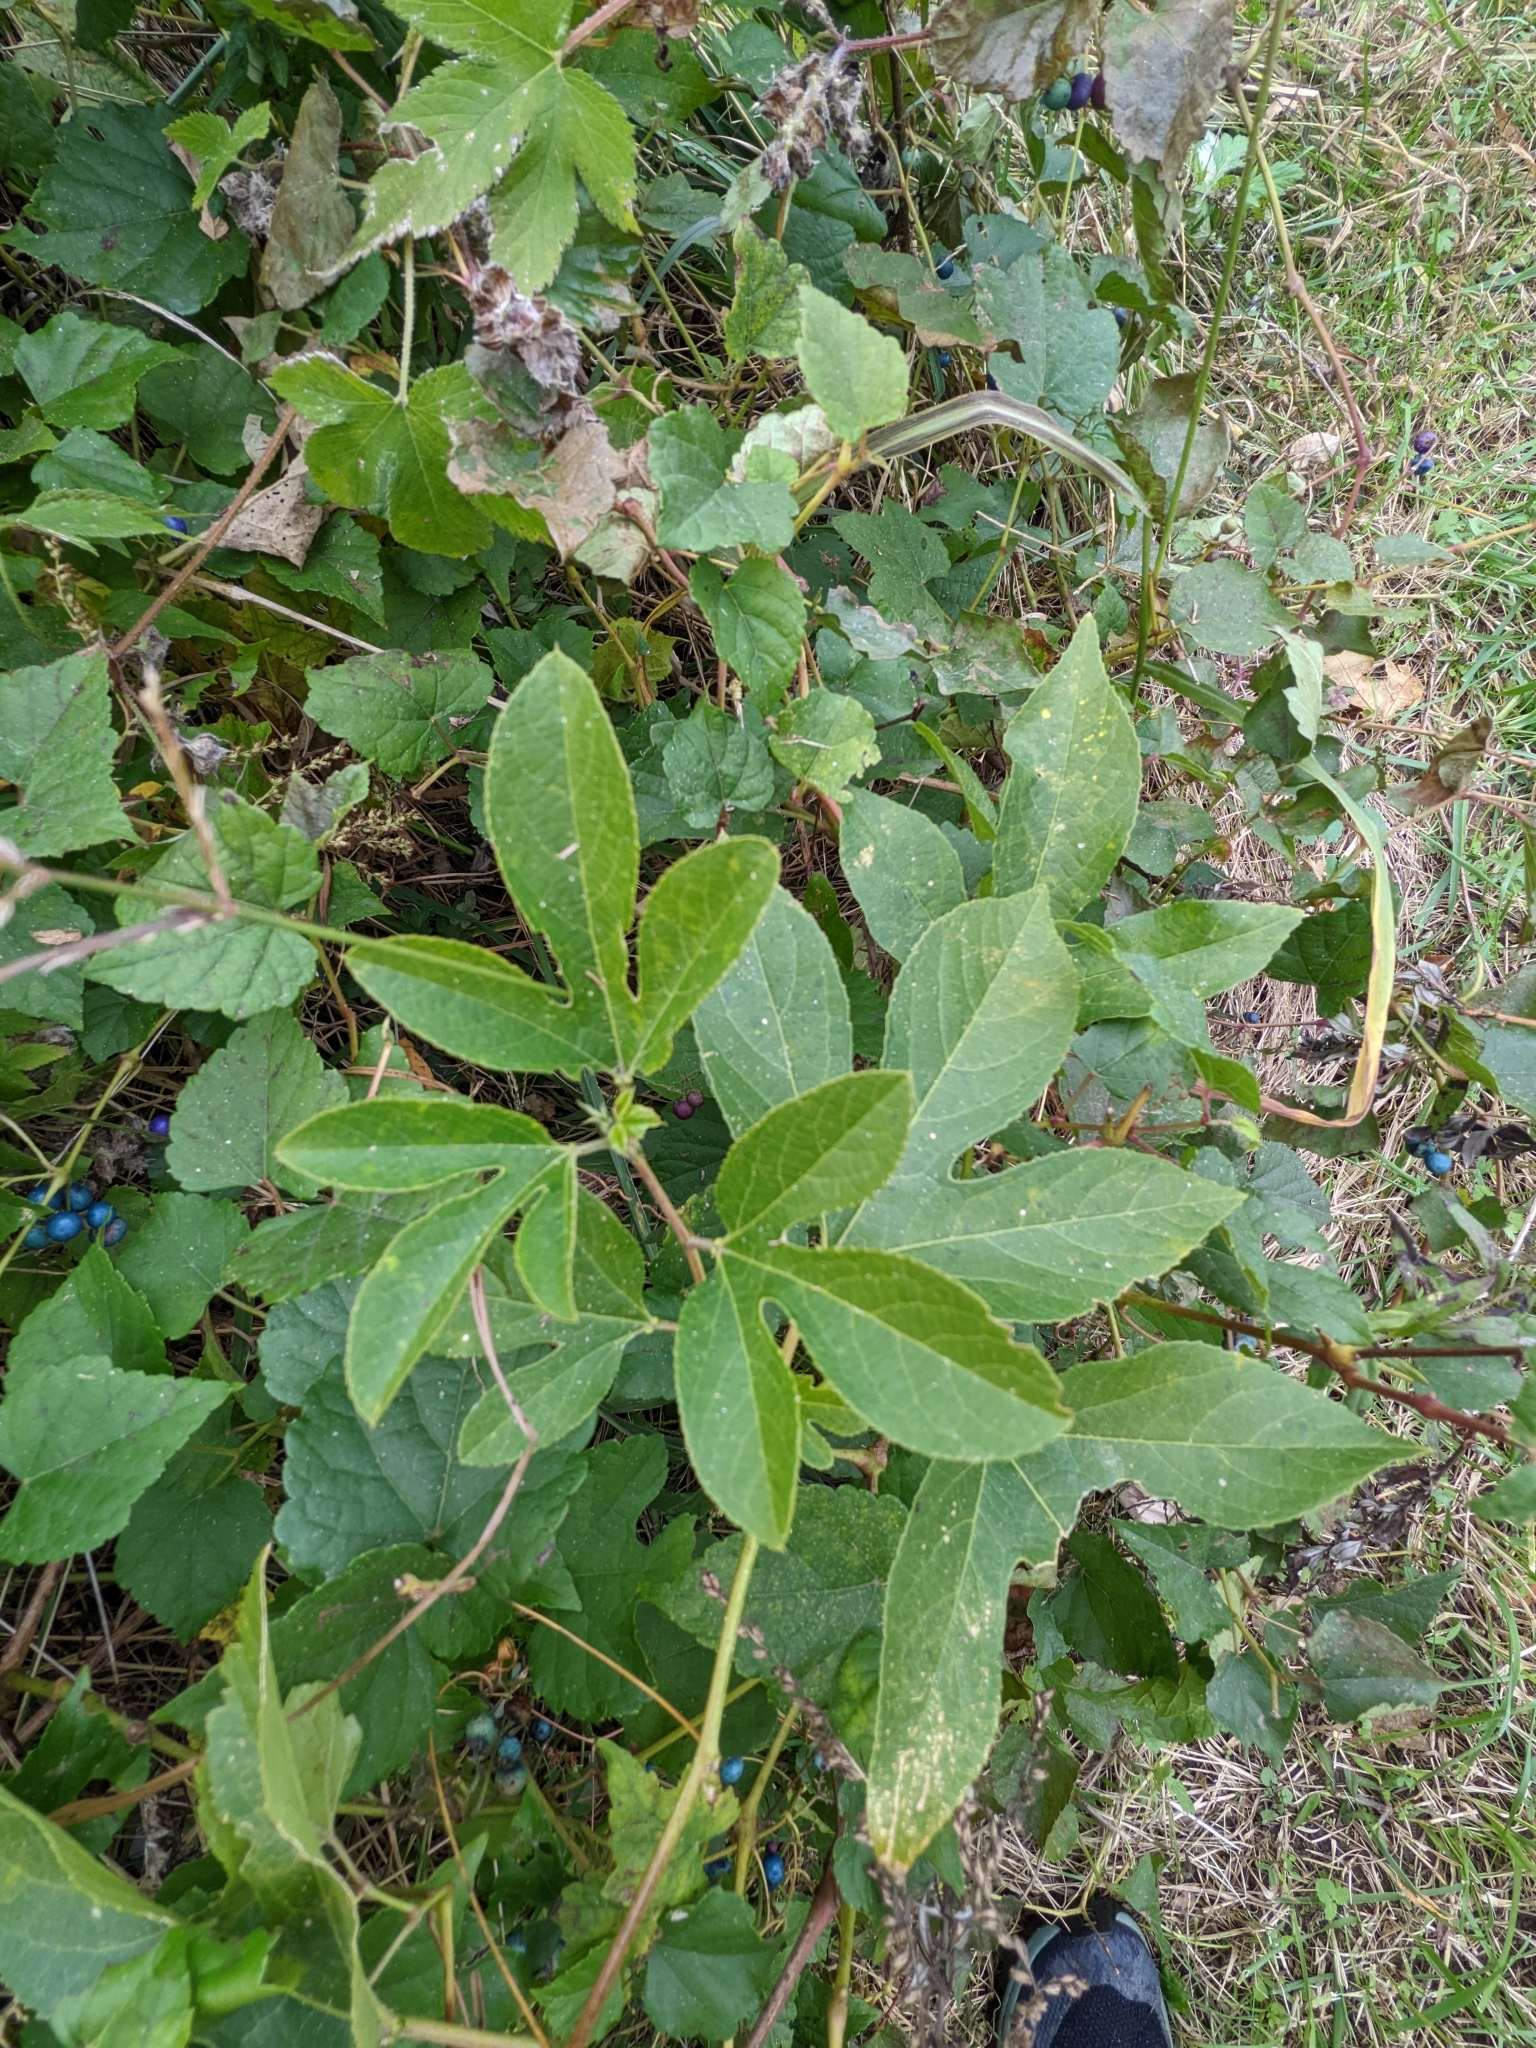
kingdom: Plantae
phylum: Tracheophyta
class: Magnoliopsida
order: Malpighiales
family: Passifloraceae
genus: Passiflora
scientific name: Passiflora incarnata
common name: Apricot-vine
